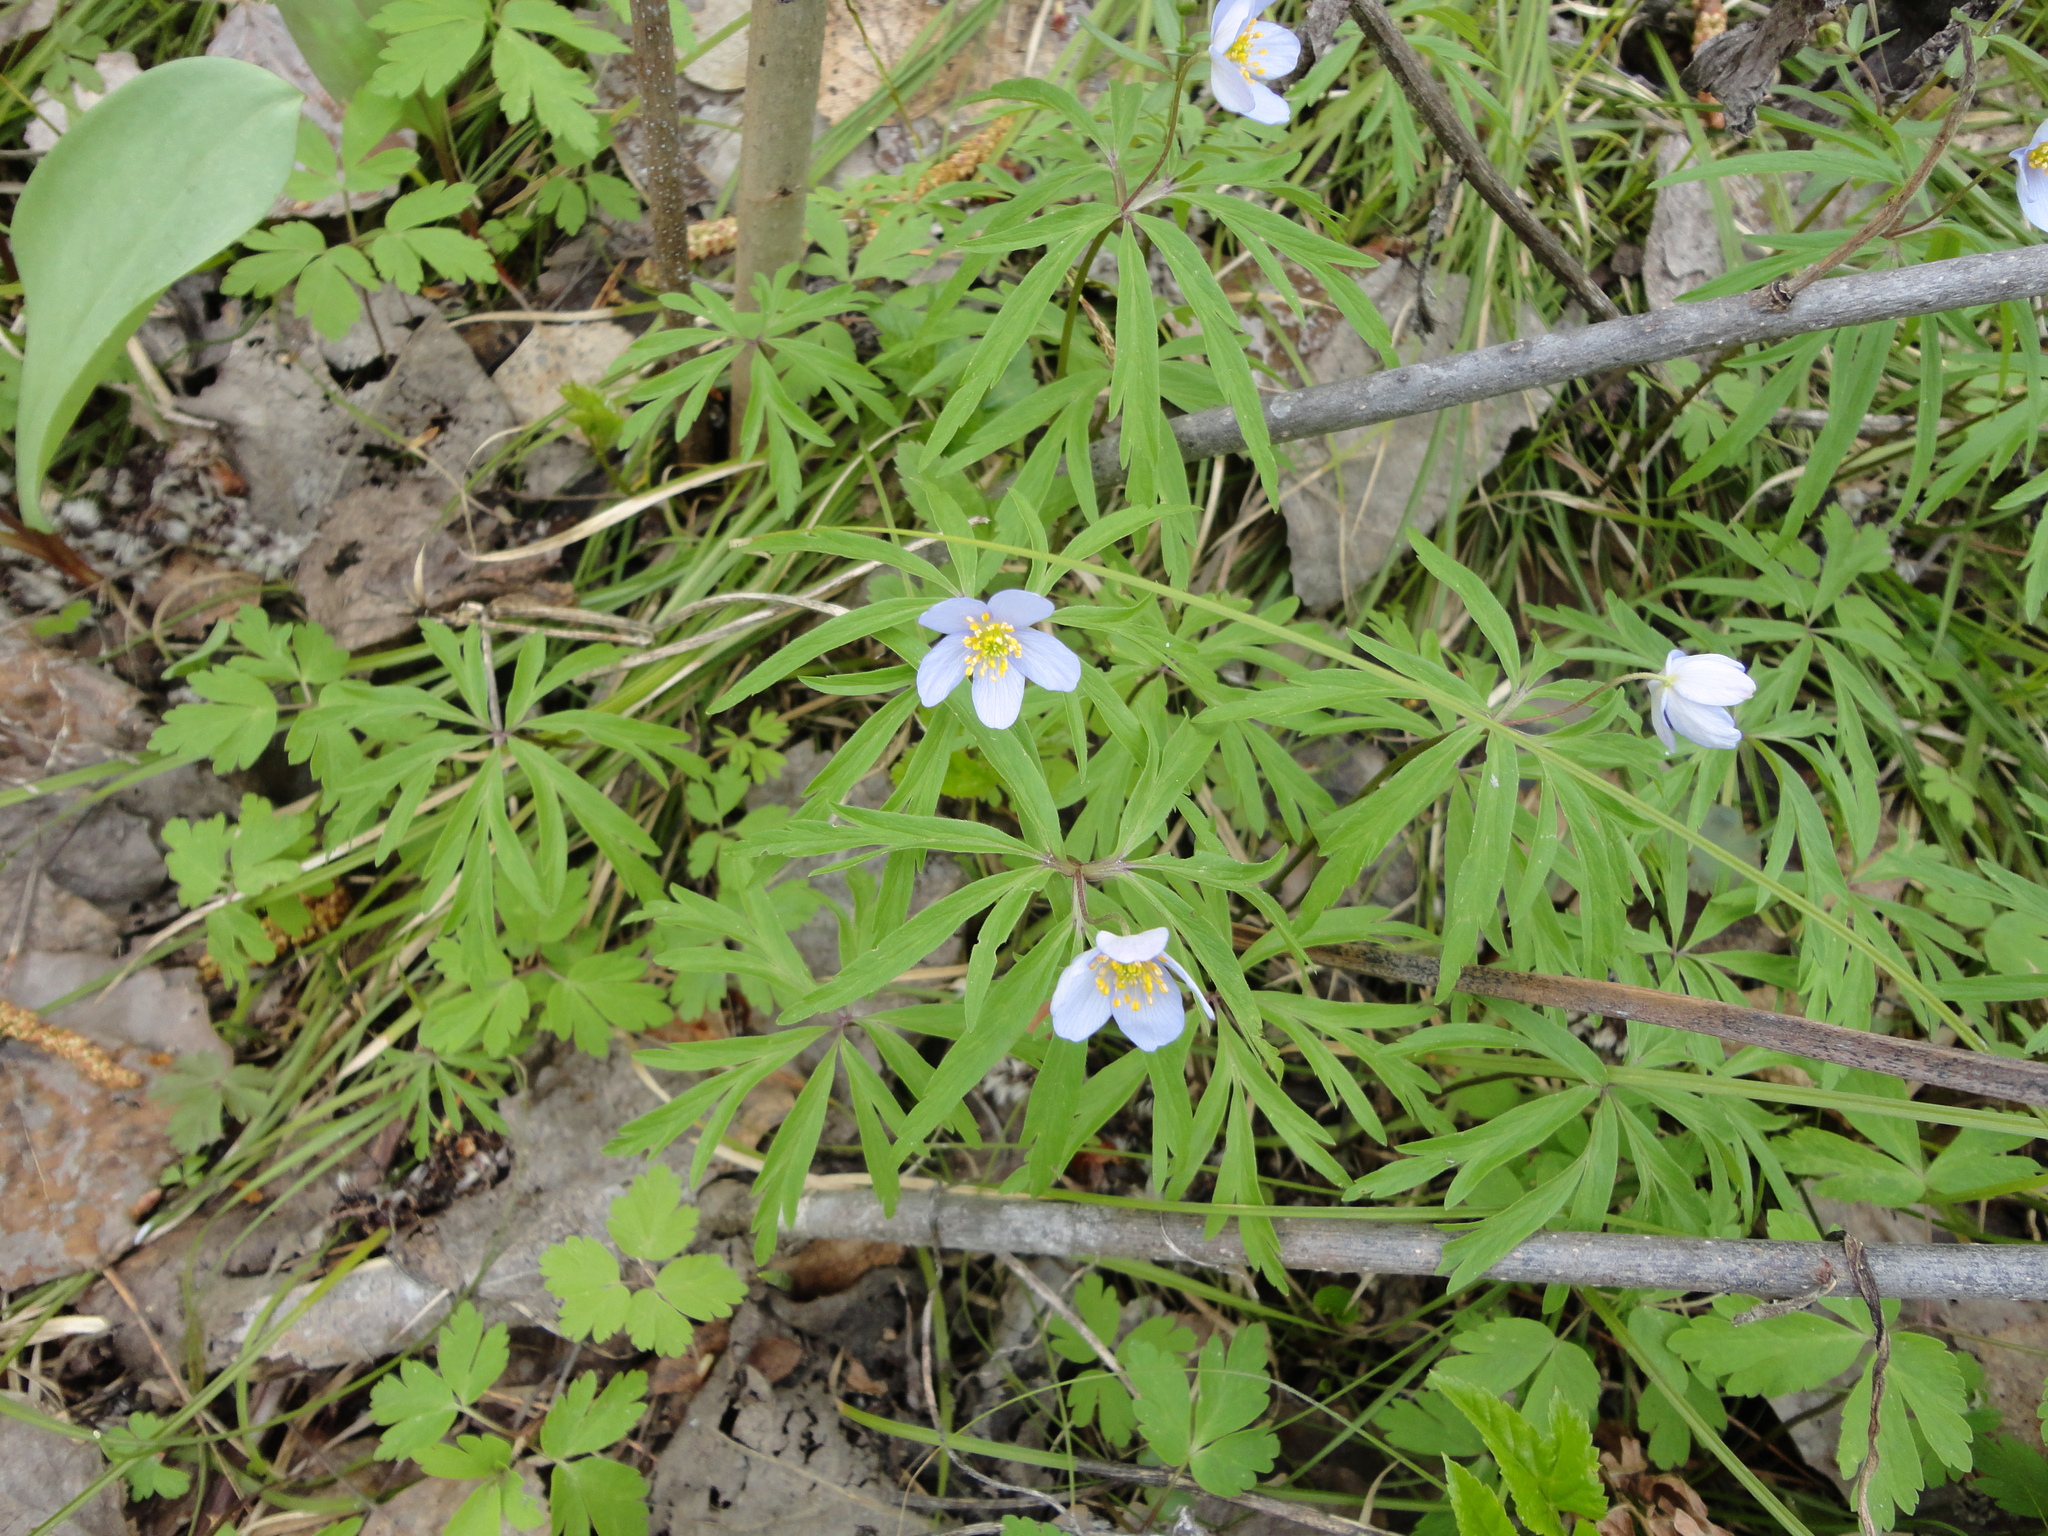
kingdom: Plantae
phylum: Tracheophyta
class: Magnoliopsida
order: Ranunculales
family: Ranunculaceae
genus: Anemone
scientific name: Anemone caerulea
